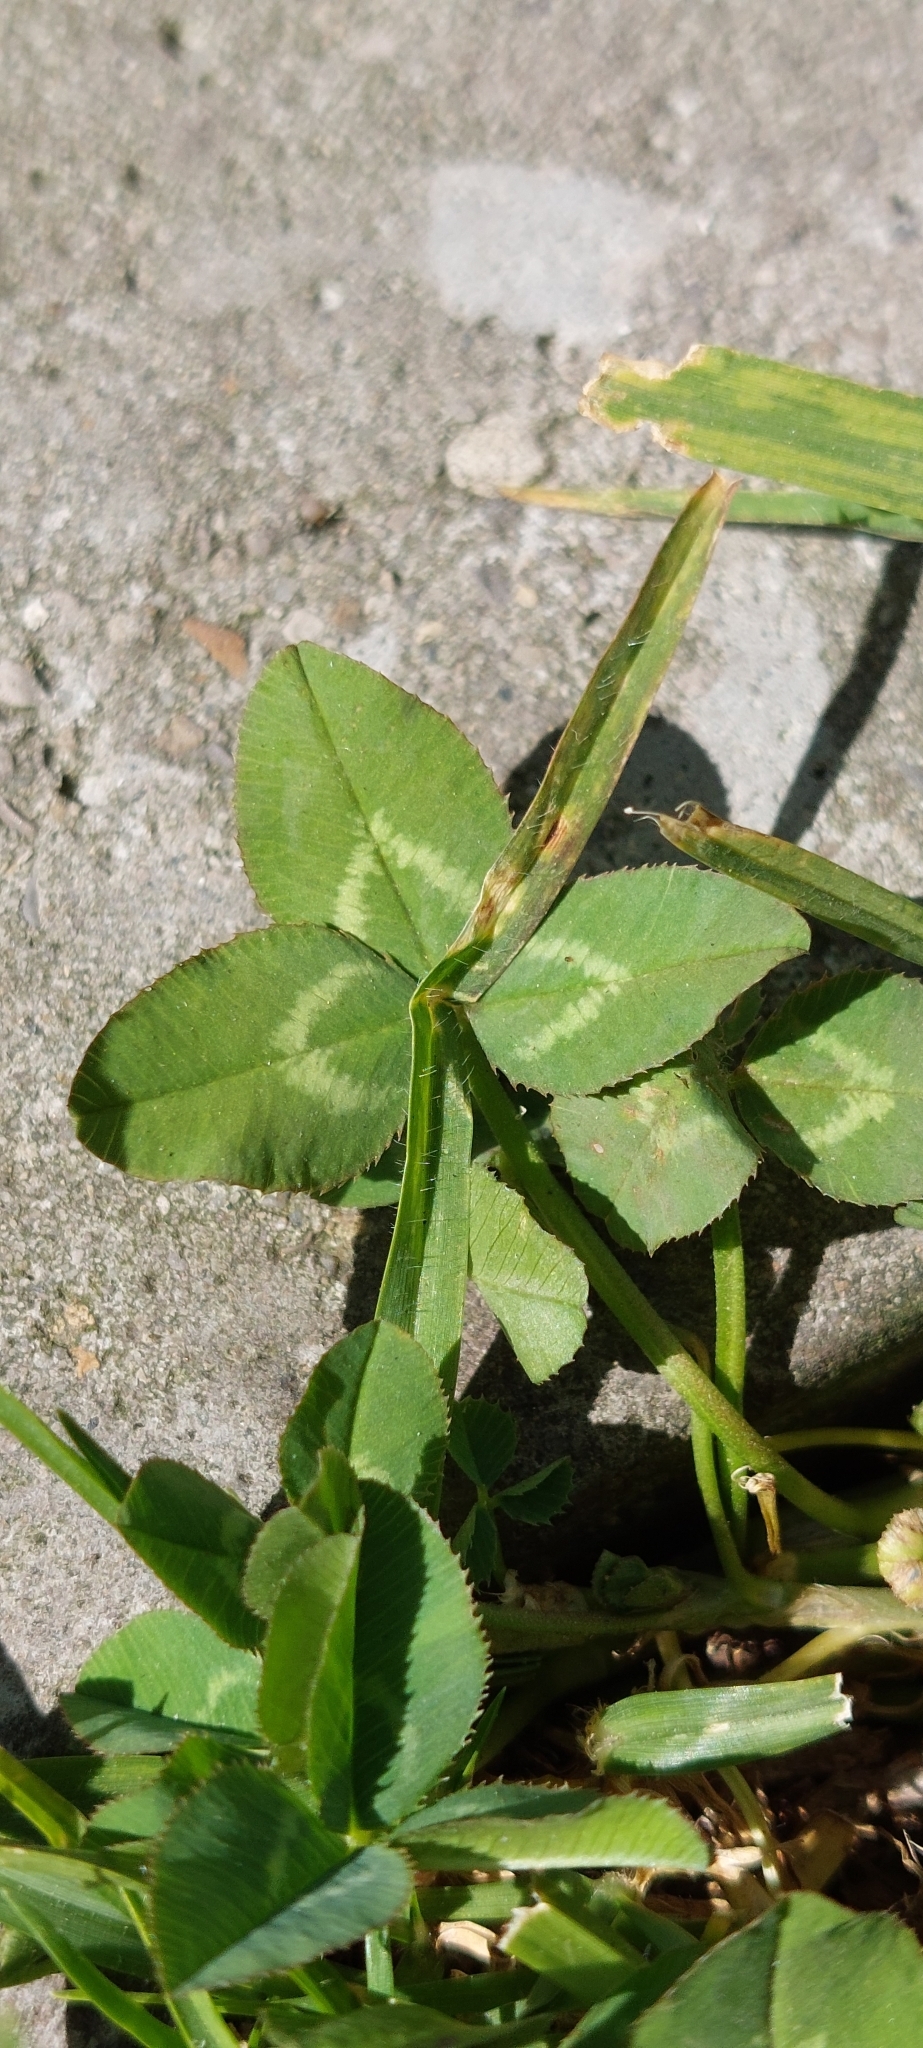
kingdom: Plantae
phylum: Tracheophyta
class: Magnoliopsida
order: Fabales
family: Fabaceae
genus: Trifolium
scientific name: Trifolium repens
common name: White clover
